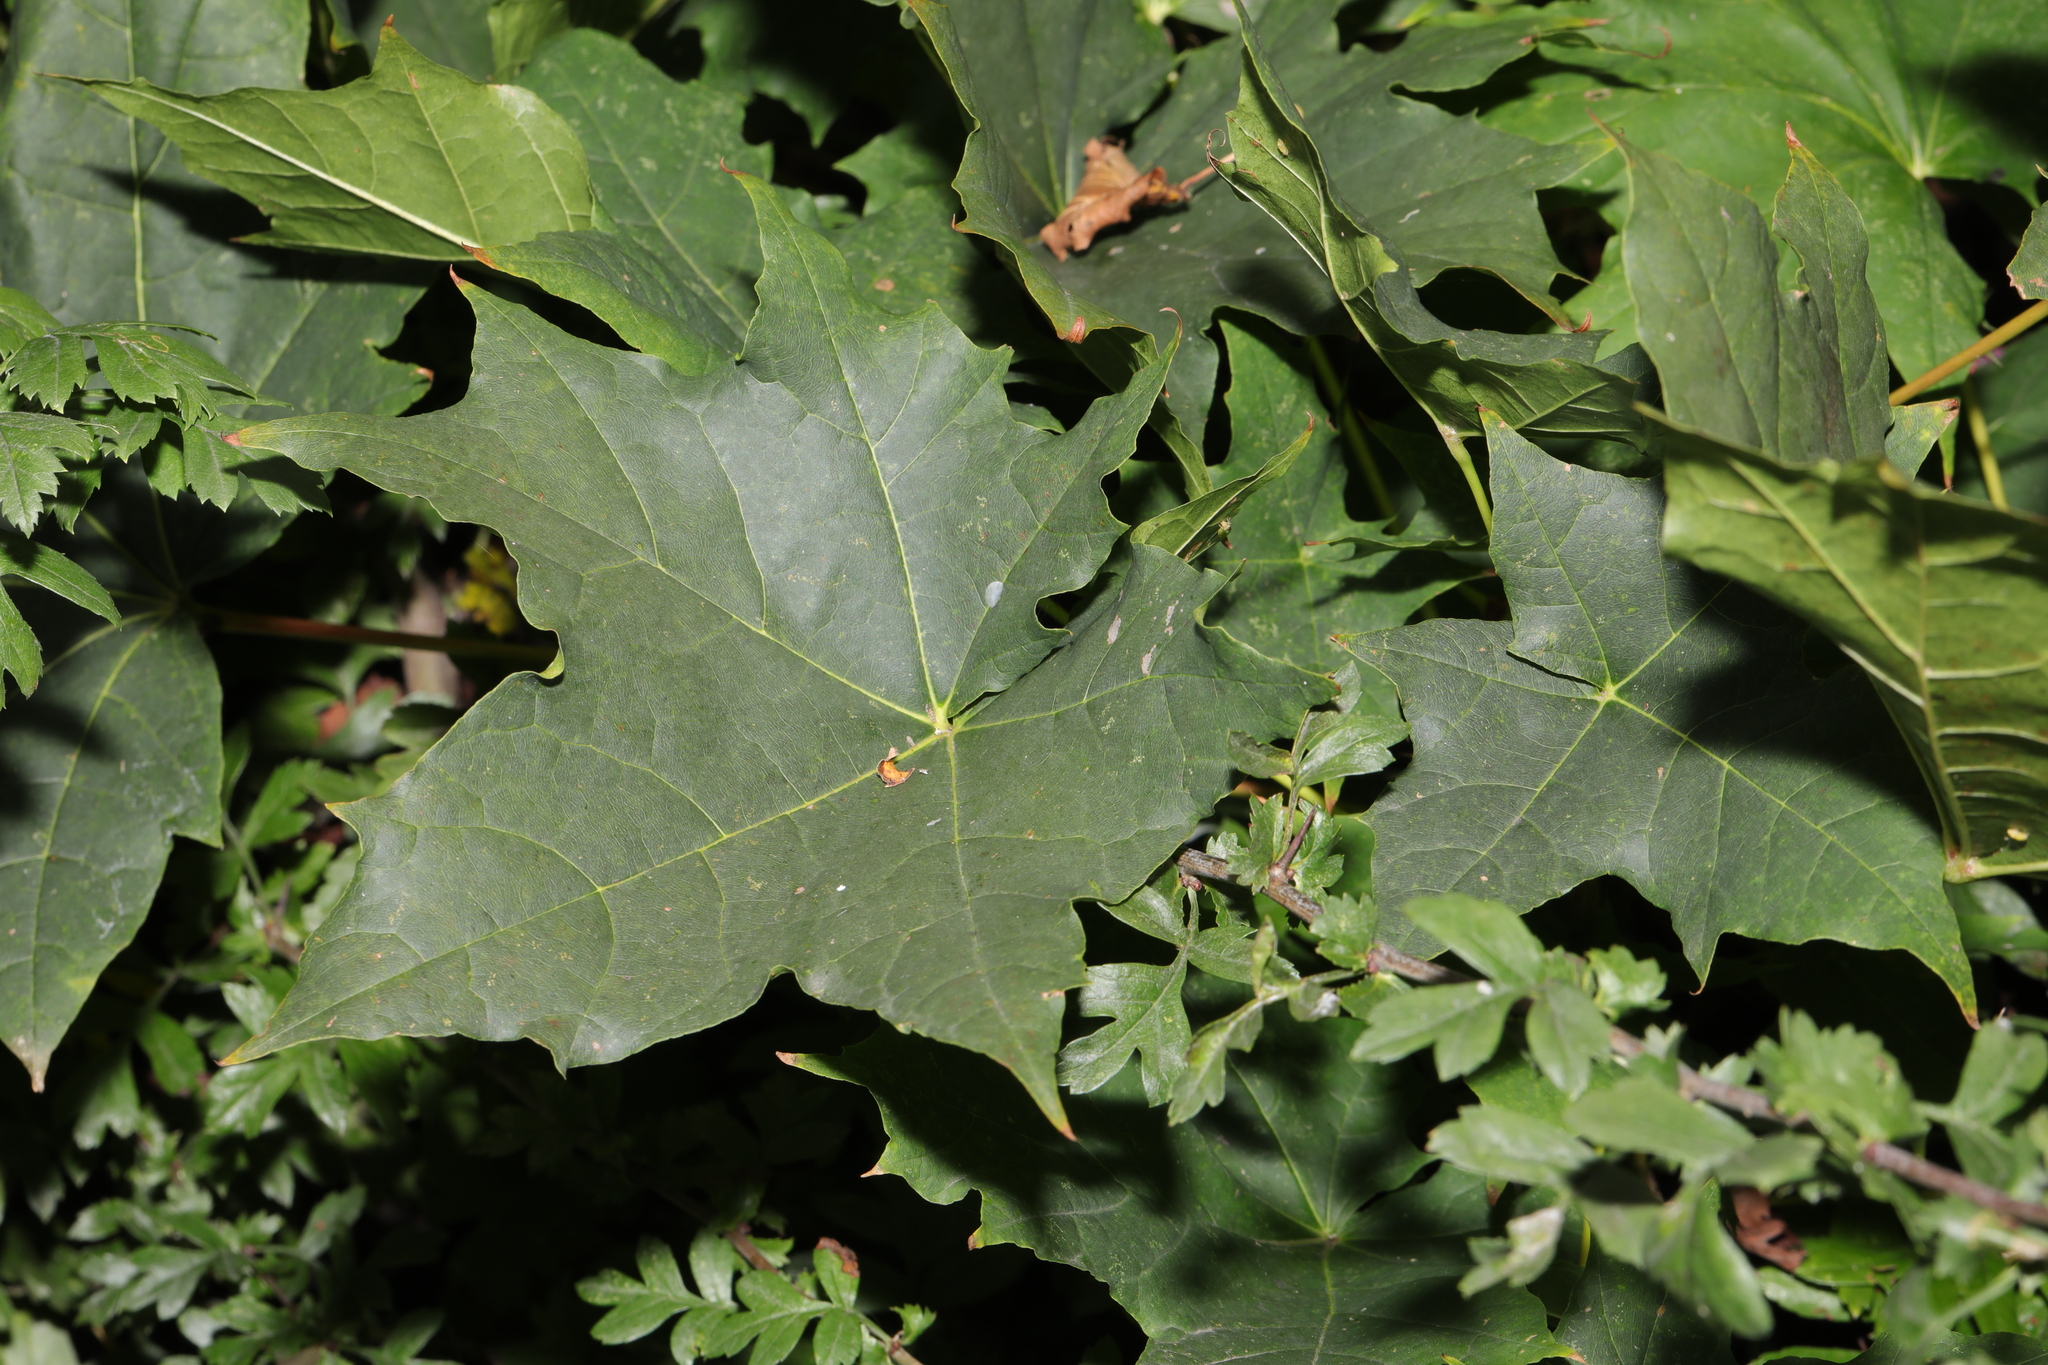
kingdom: Plantae
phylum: Tracheophyta
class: Magnoliopsida
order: Sapindales
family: Sapindaceae
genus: Acer
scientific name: Acer platanoides
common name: Norway maple
